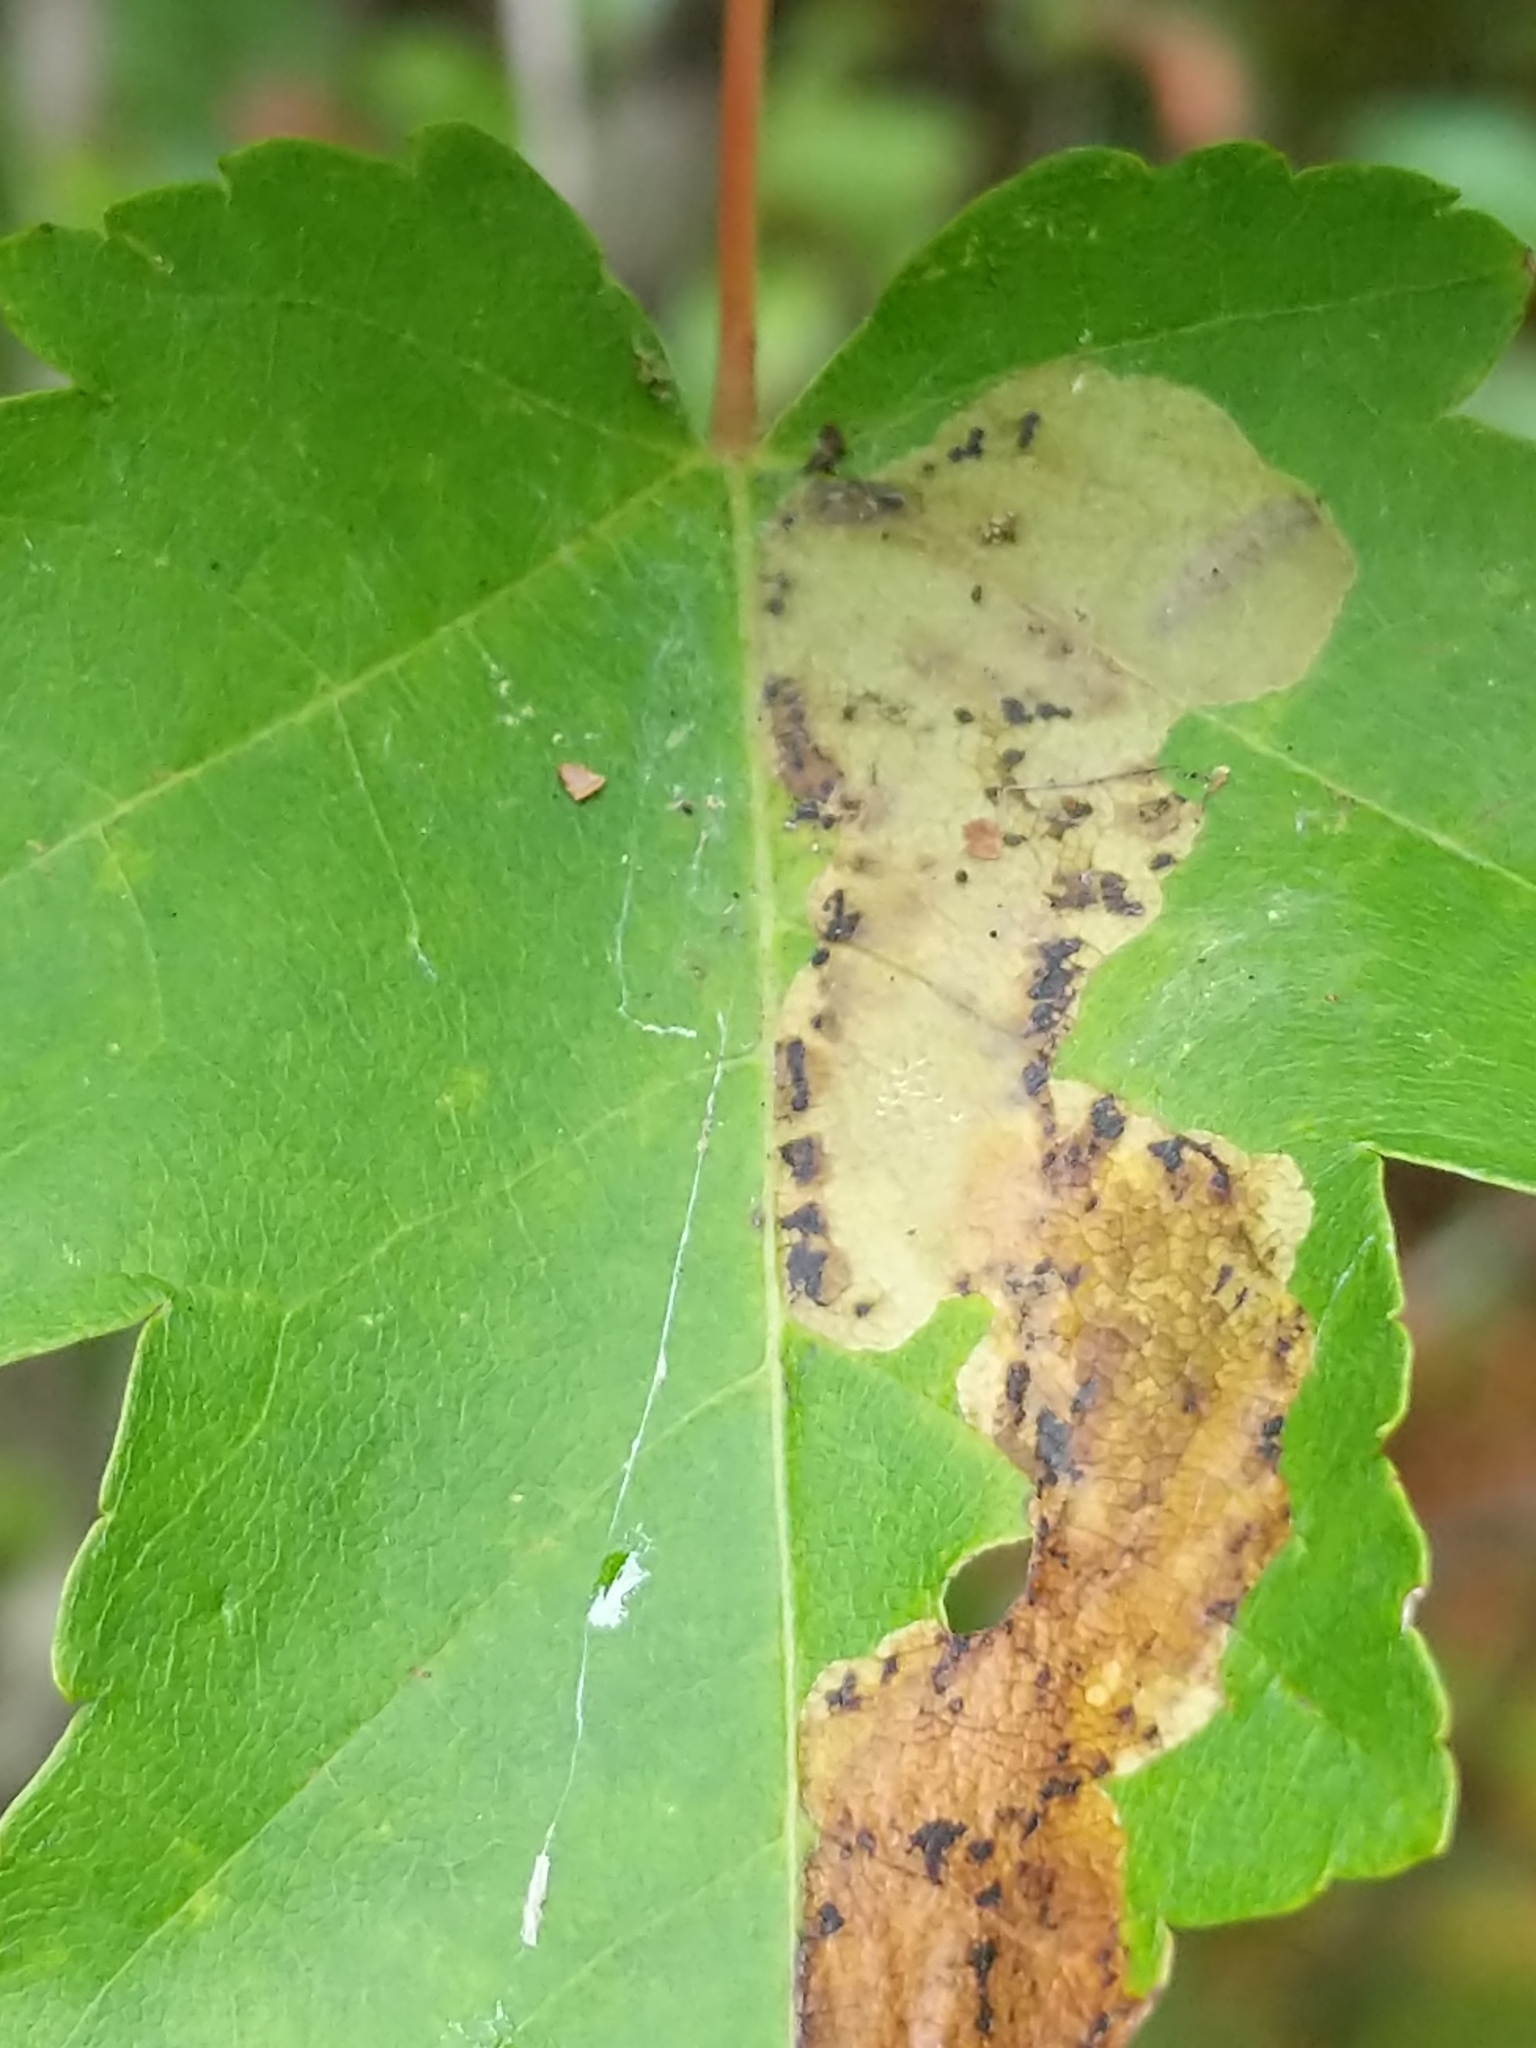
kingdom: Animalia
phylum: Arthropoda
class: Insecta
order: Lepidoptera
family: Gracillariidae
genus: Cameraria
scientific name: Cameraria aceriella
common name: Maple leafblotch miner
